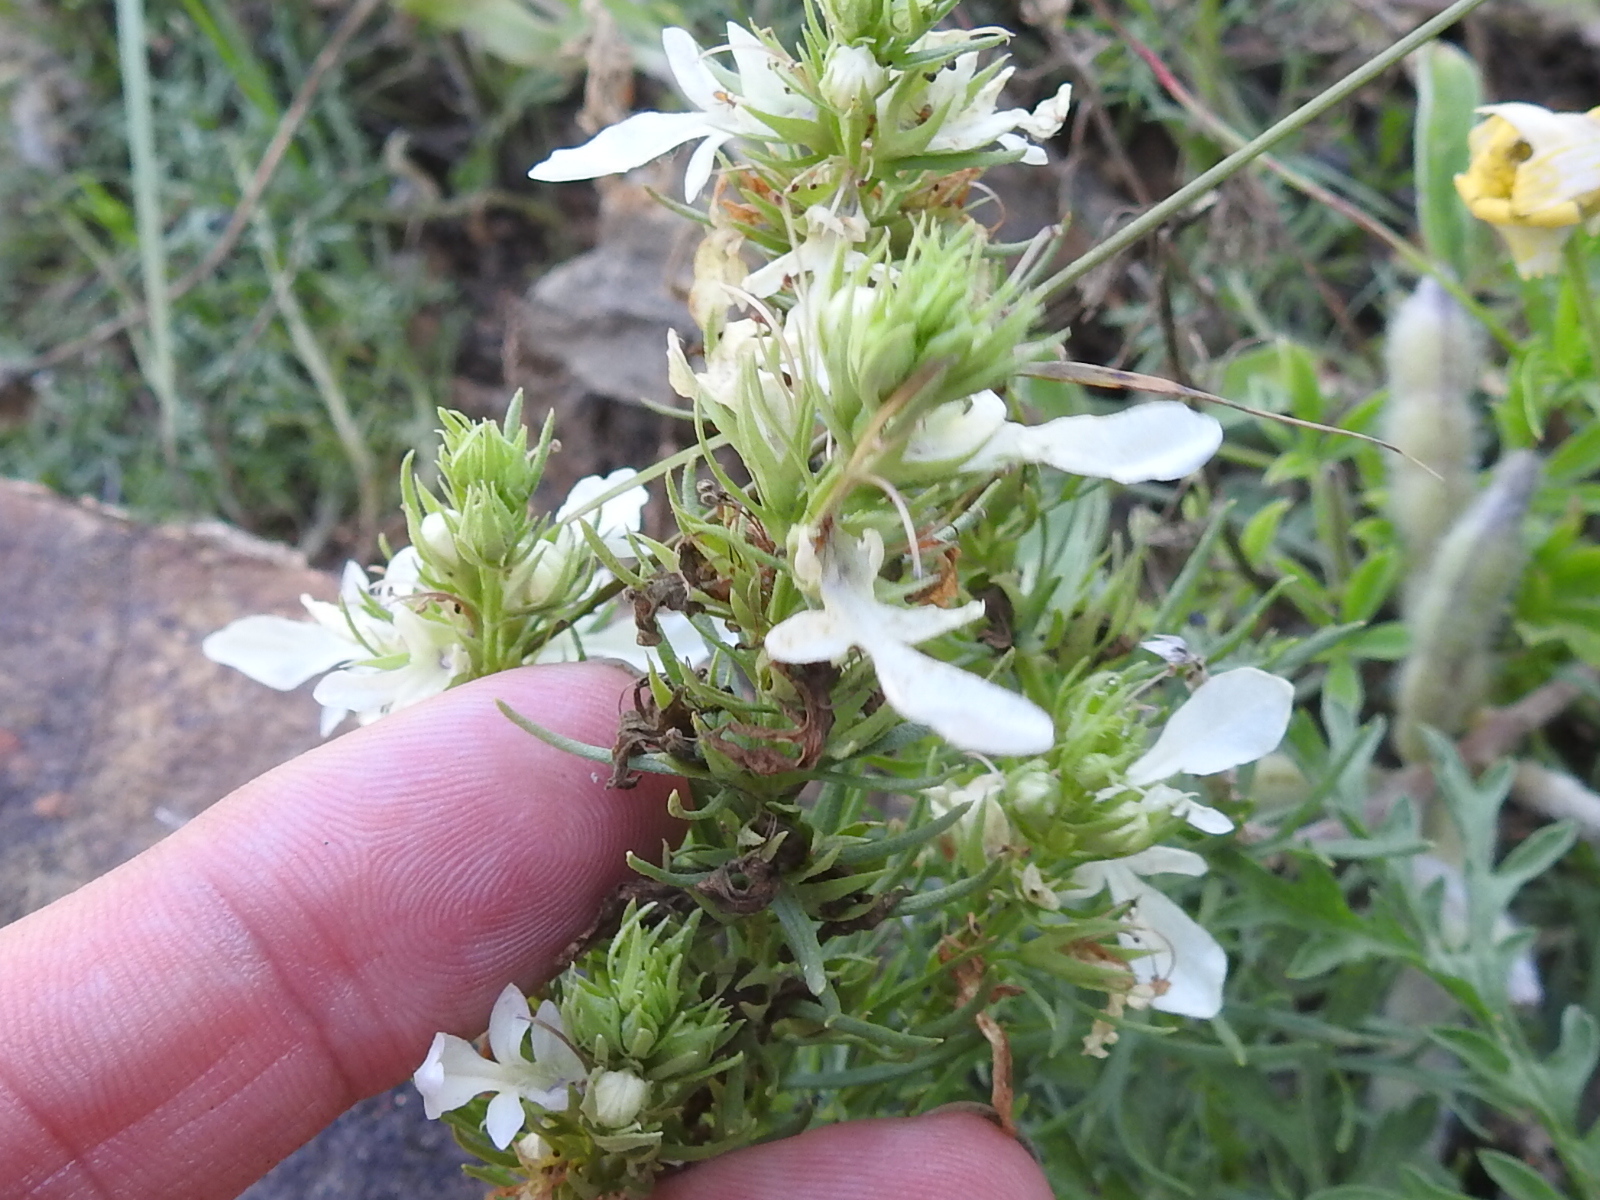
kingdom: Plantae
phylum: Tracheophyta
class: Magnoliopsida
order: Lamiales
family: Lamiaceae
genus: Teucrium
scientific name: Teucrium laciniatum
